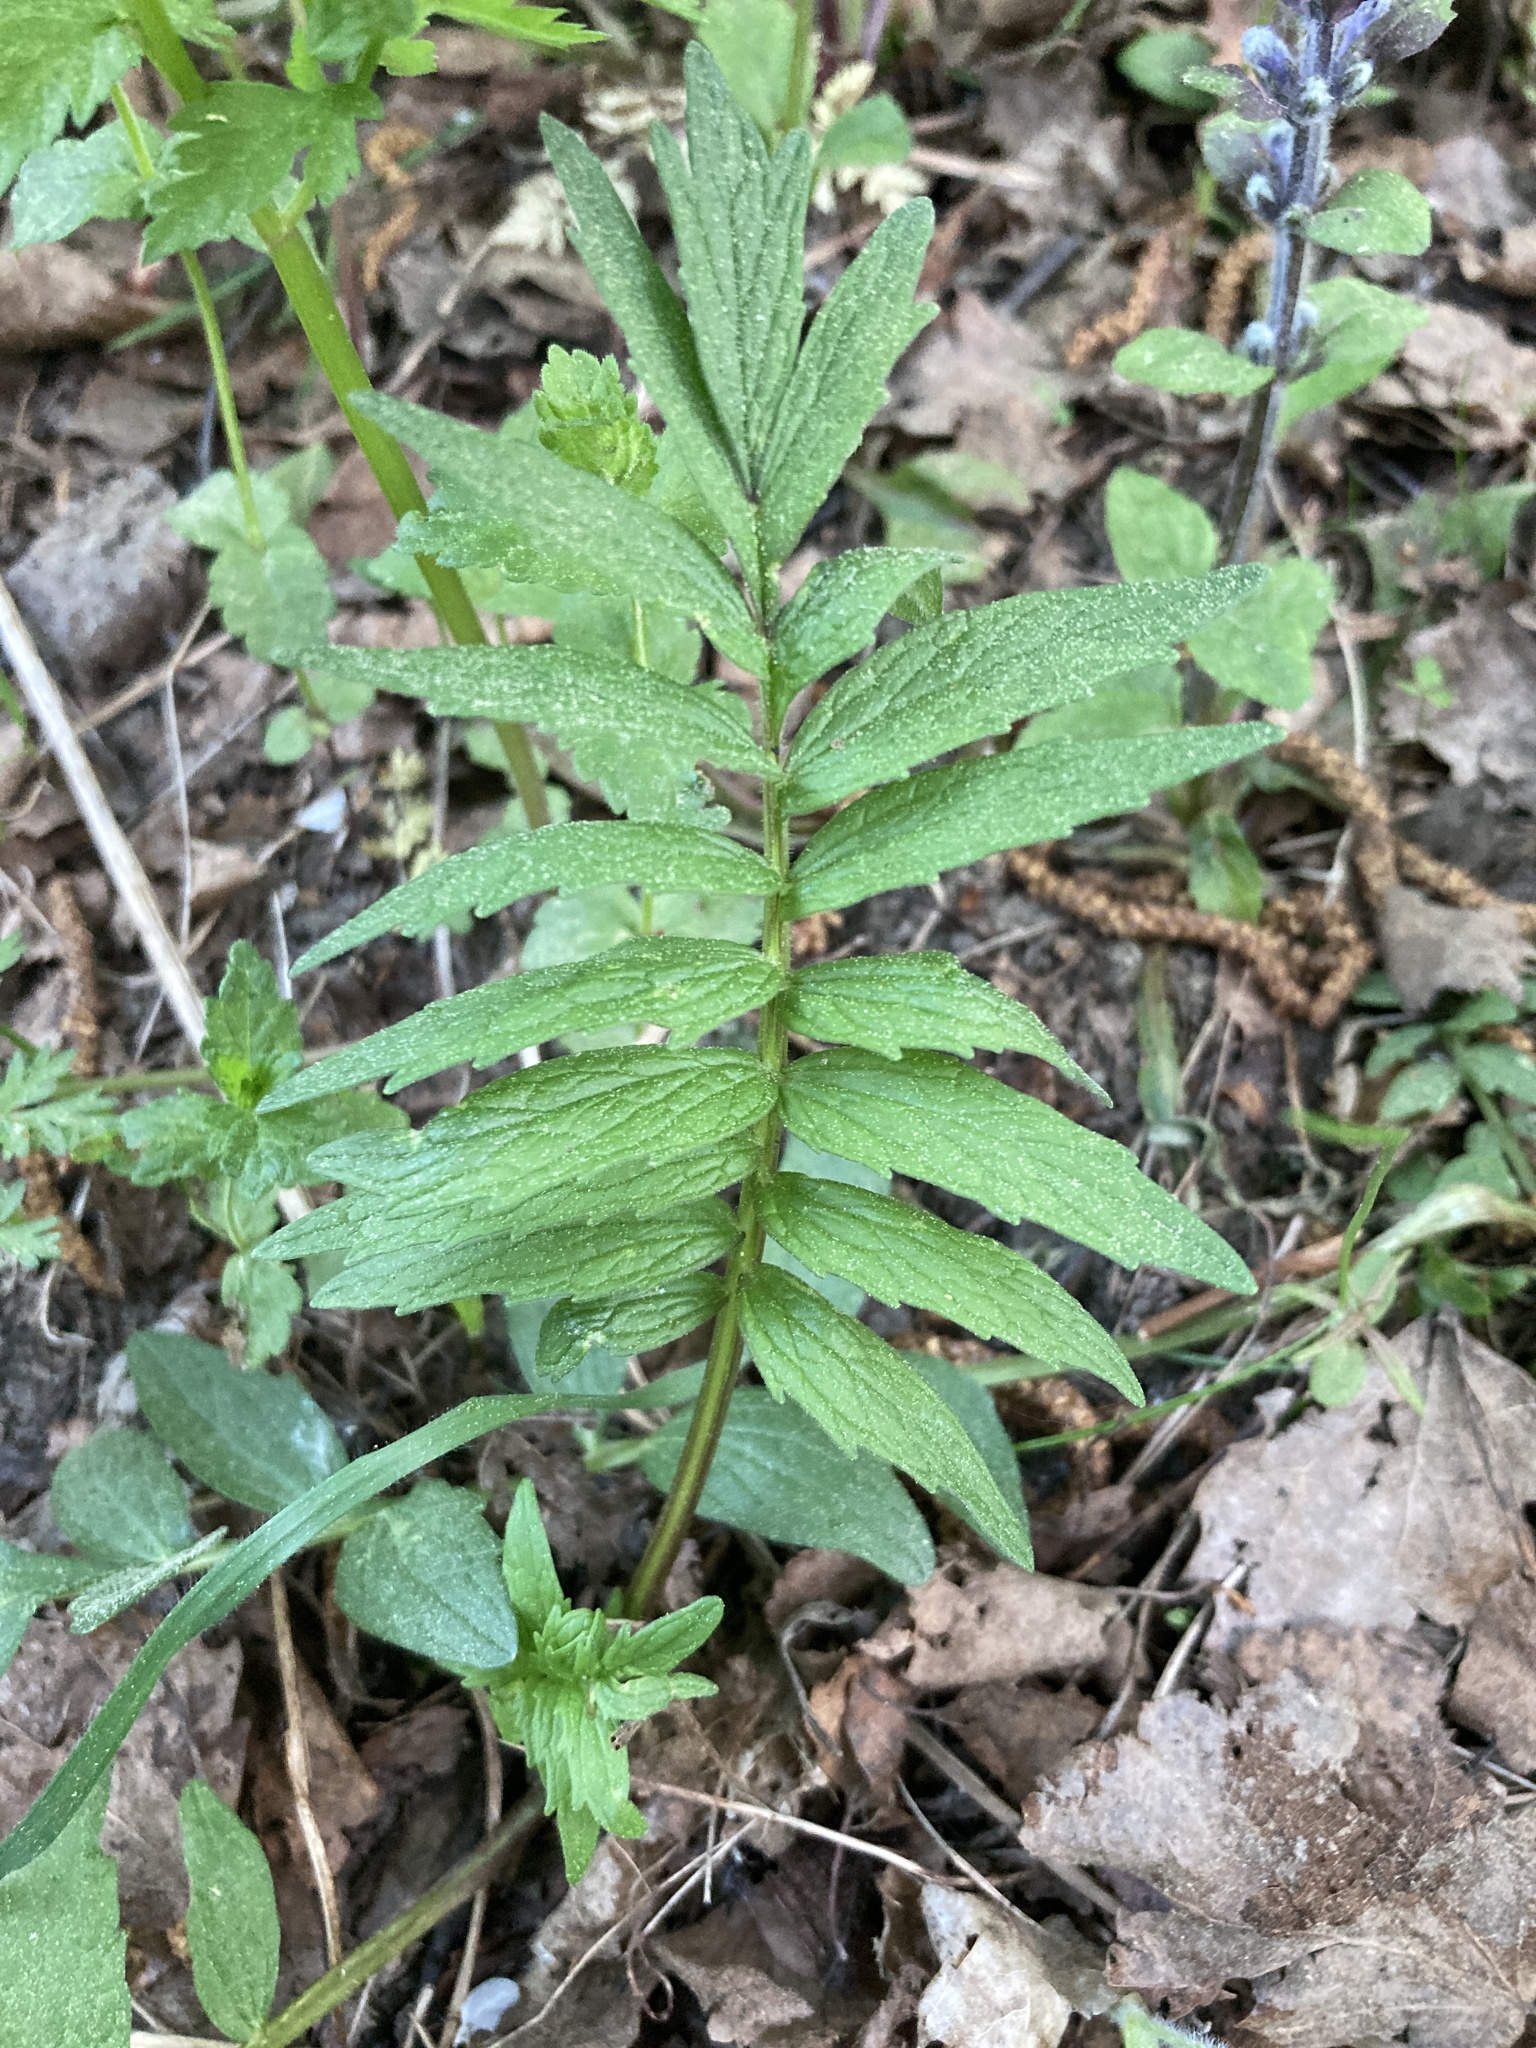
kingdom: Plantae
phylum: Tracheophyta
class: Magnoliopsida
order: Dipsacales
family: Caprifoliaceae
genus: Valeriana
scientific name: Valeriana officinalis
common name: Common valerian
